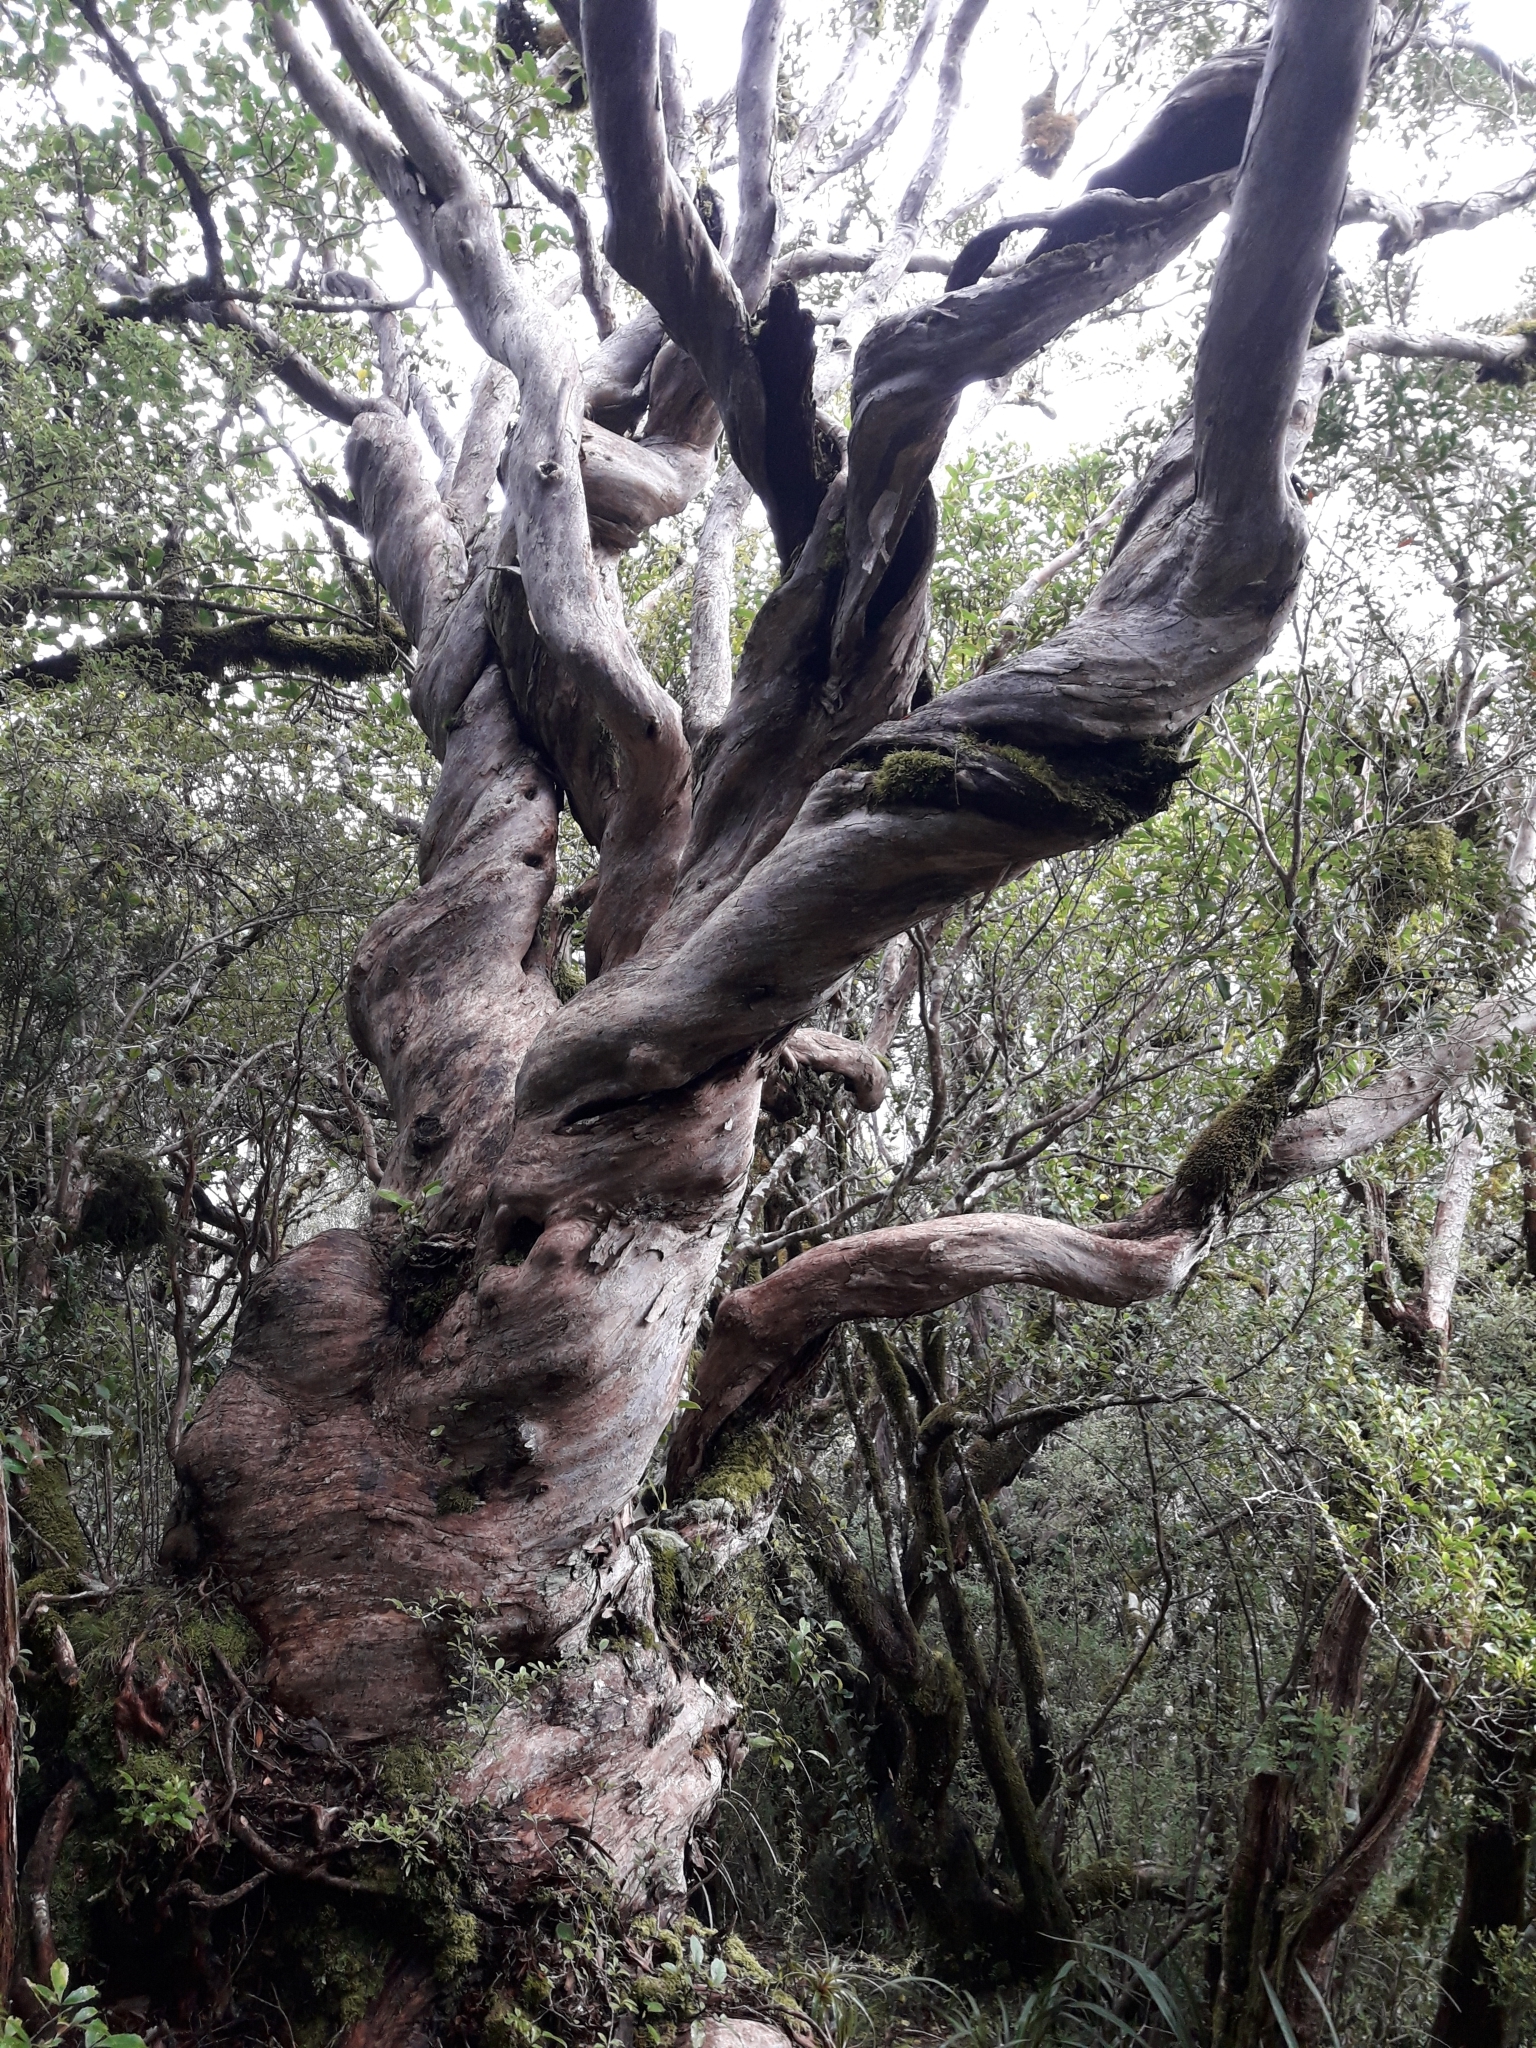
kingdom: Plantae
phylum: Tracheophyta
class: Magnoliopsida
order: Myrtales
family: Myrtaceae
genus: Metrosideros
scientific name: Metrosideros umbellata
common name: Southern rata
